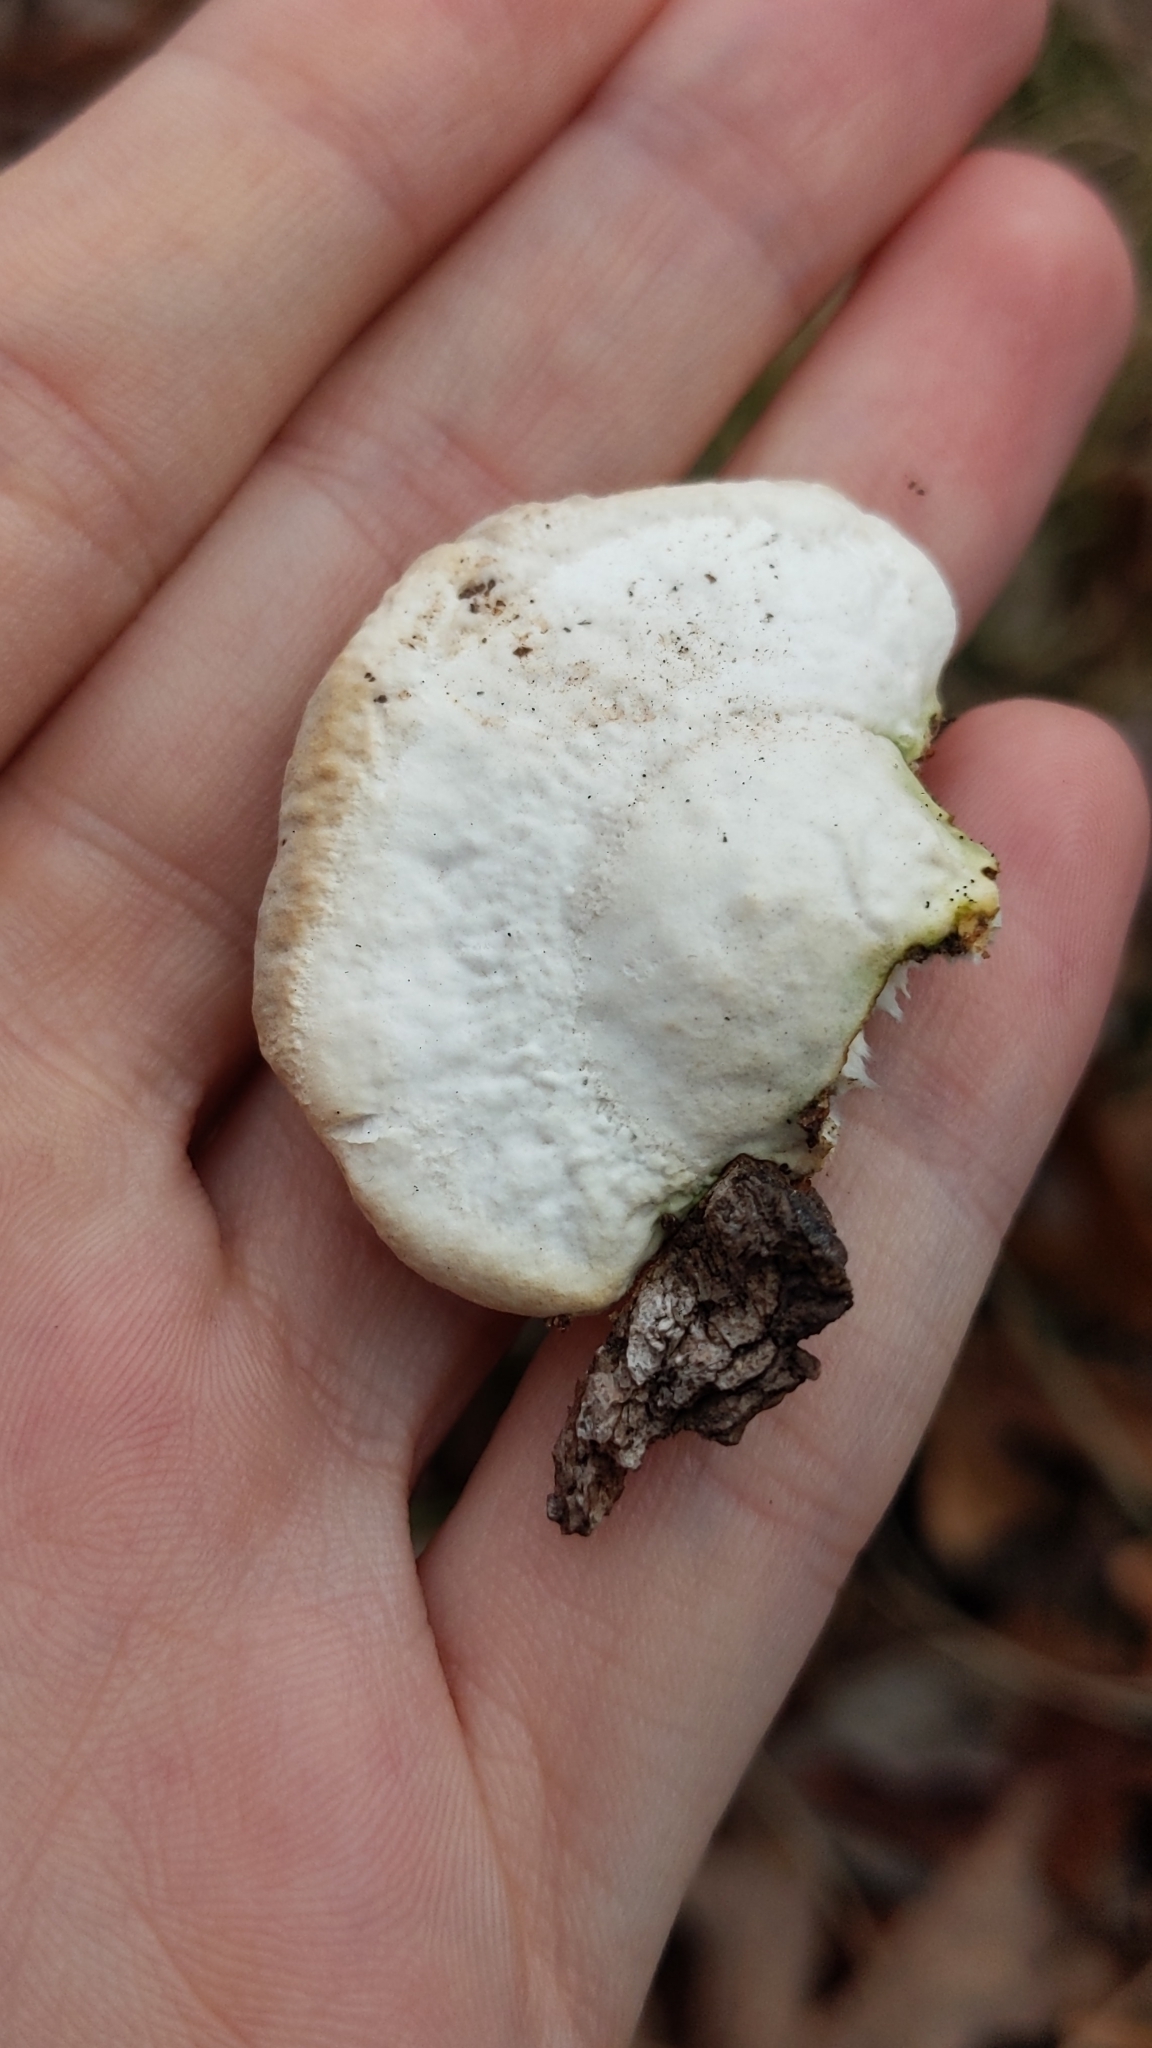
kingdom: Fungi
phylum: Basidiomycota
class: Agaricomycetes
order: Polyporales
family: Polyporaceae
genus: Trametes
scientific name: Trametes lactinea
